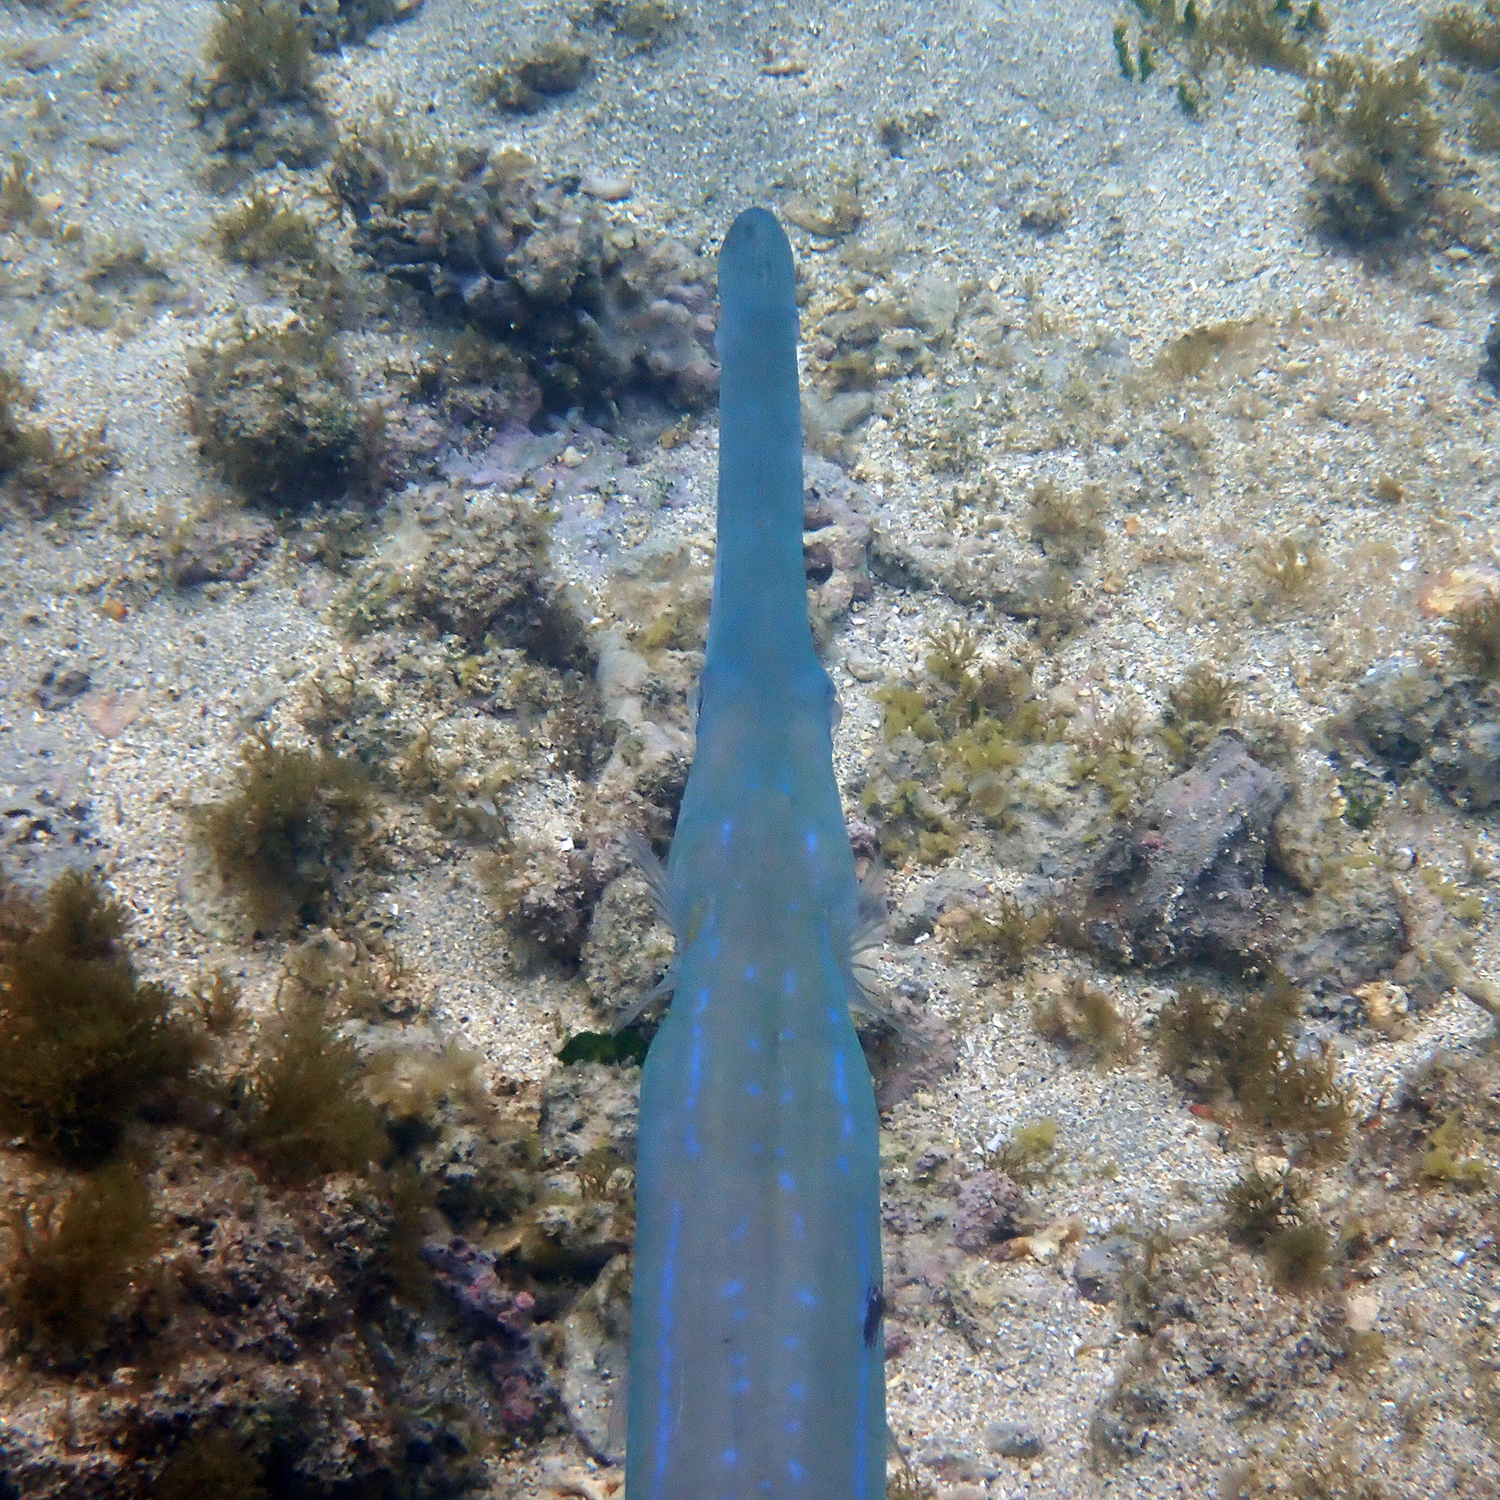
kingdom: Animalia
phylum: Chordata
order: Syngnathiformes
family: Fistulariidae
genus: Fistularia
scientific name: Fistularia commersonii
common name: Bluespotted cornetfish
